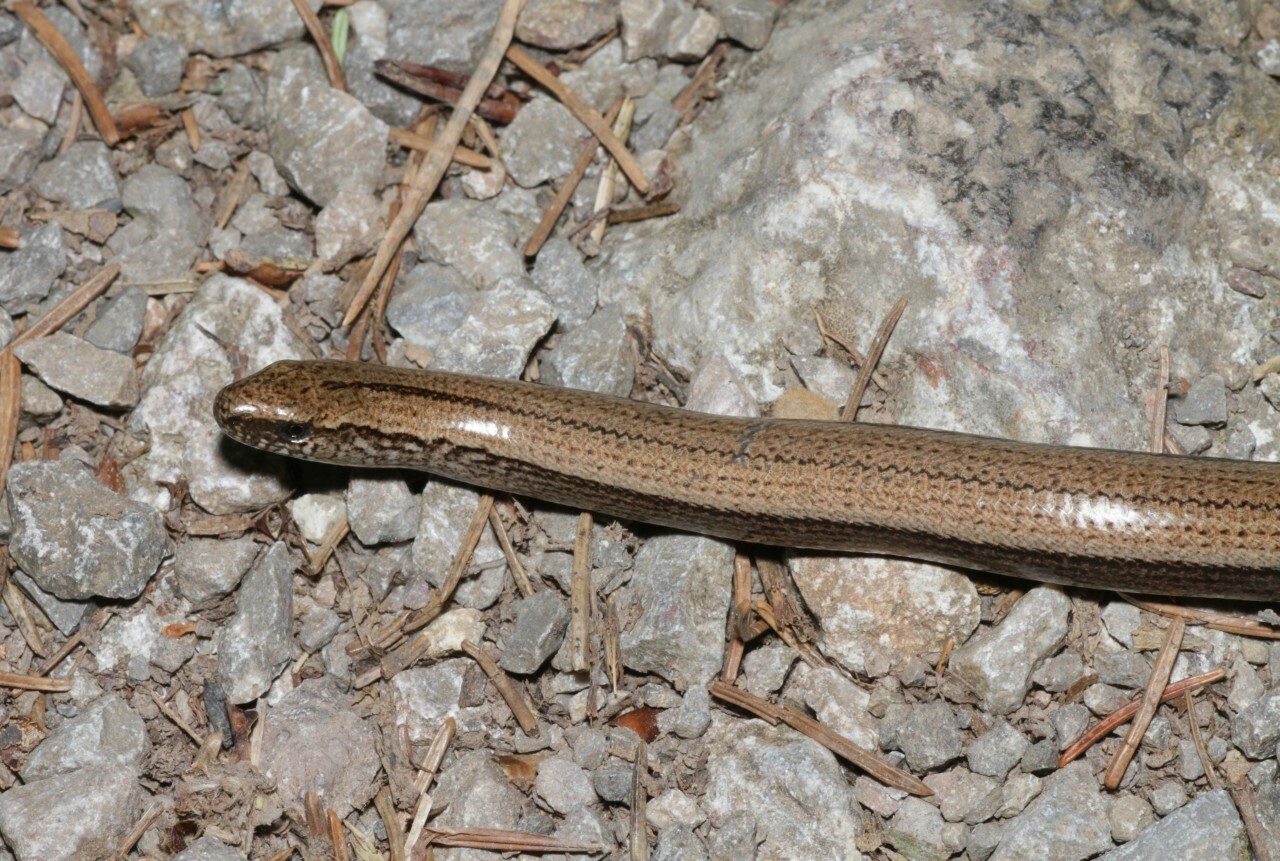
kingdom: Animalia
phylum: Chordata
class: Squamata
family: Anguidae
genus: Anguis
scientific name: Anguis fragilis
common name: Slow worm
